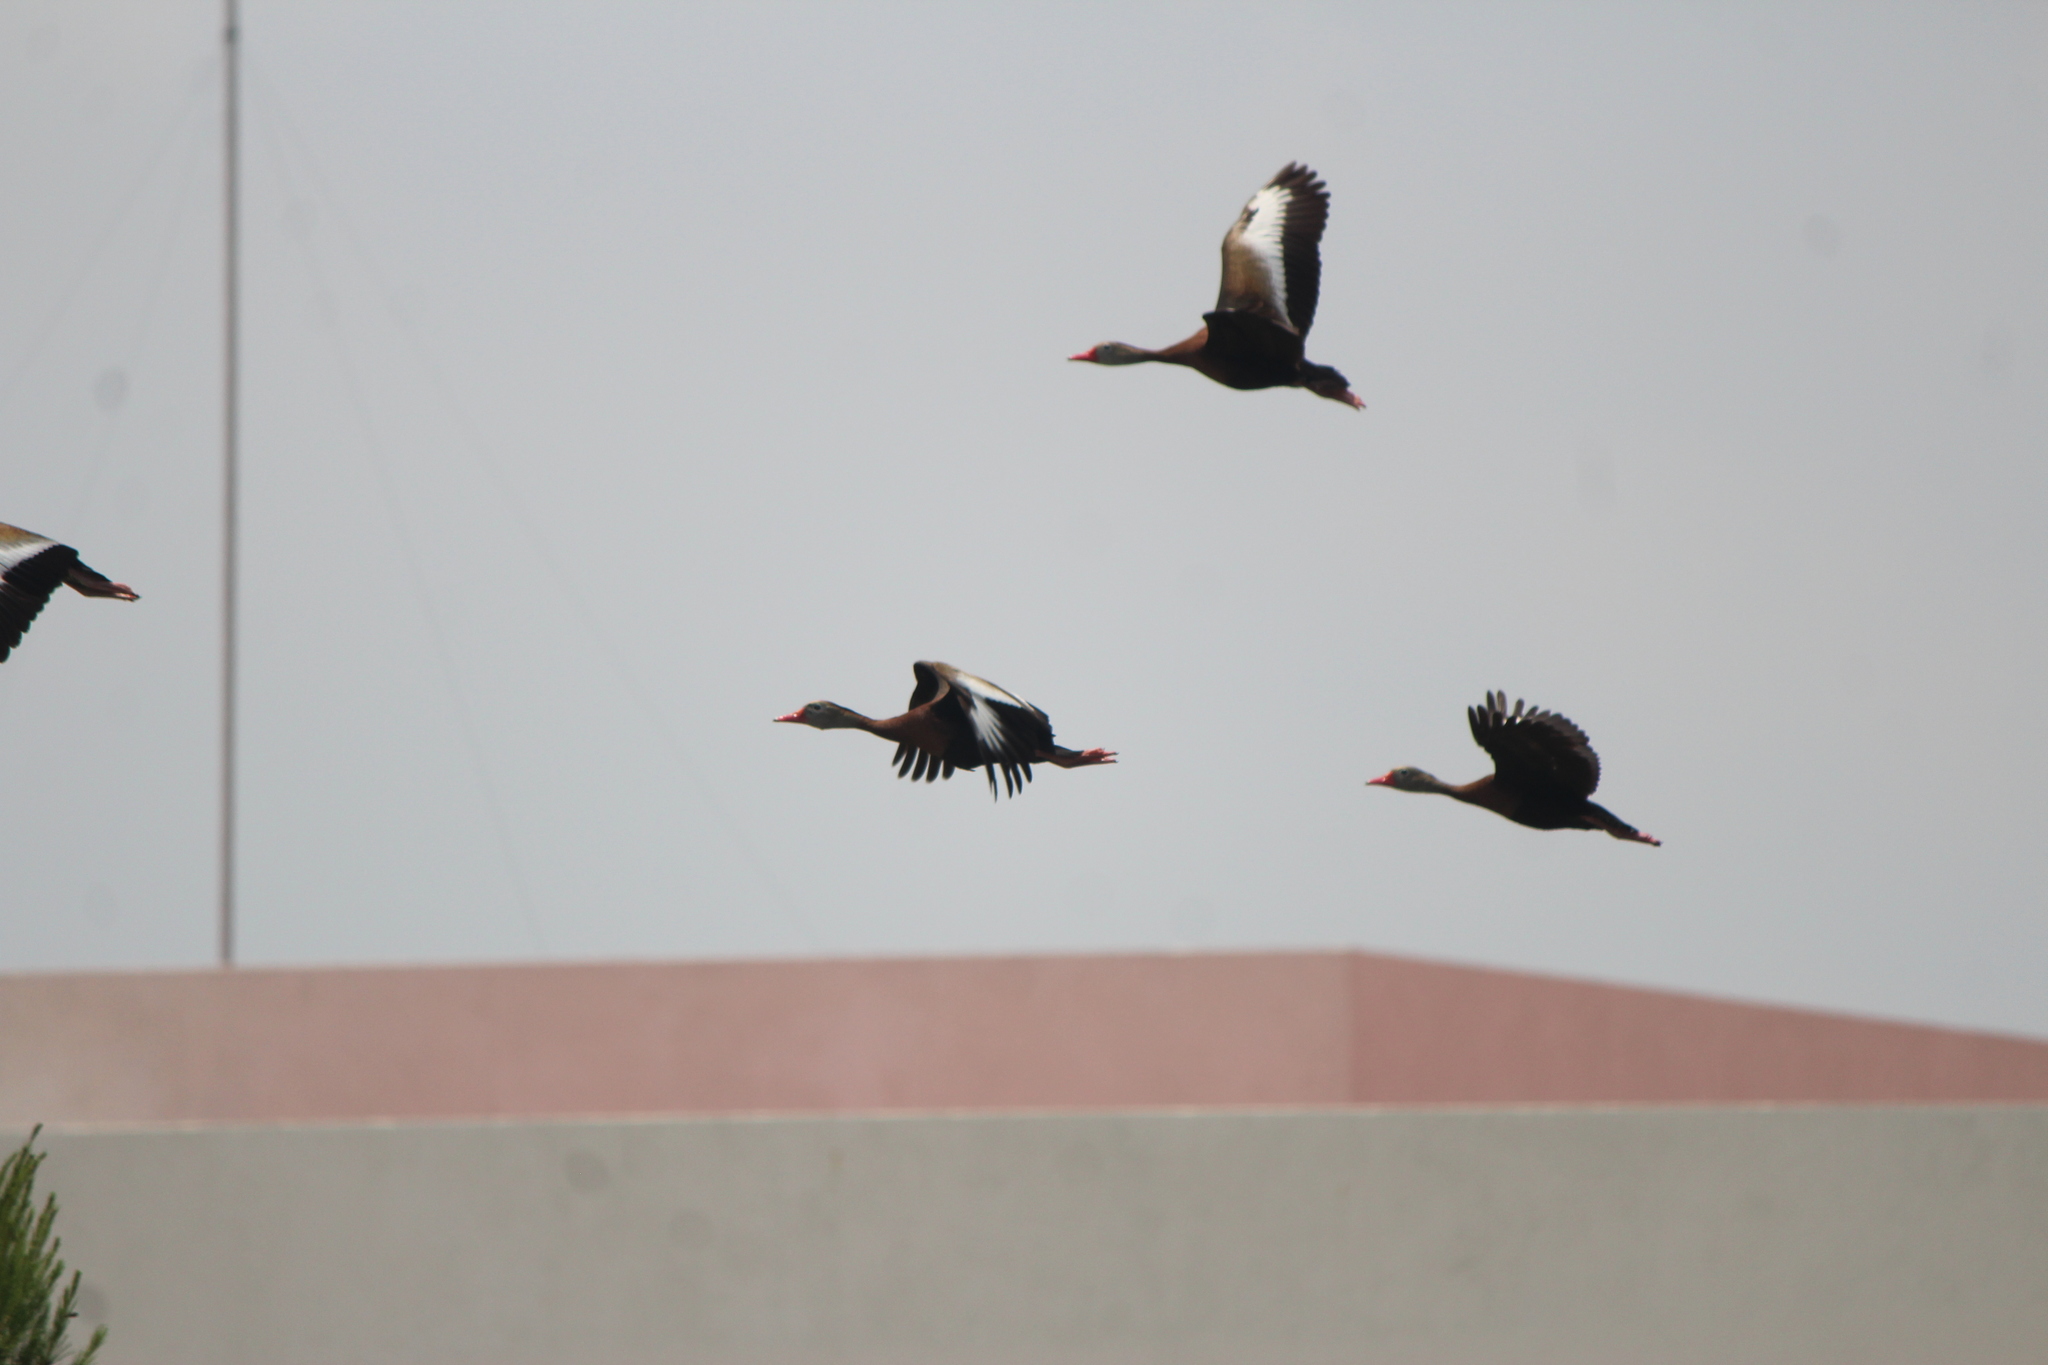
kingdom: Animalia
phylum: Chordata
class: Aves
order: Anseriformes
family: Anatidae
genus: Dendrocygna
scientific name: Dendrocygna autumnalis
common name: Black-bellied whistling duck
